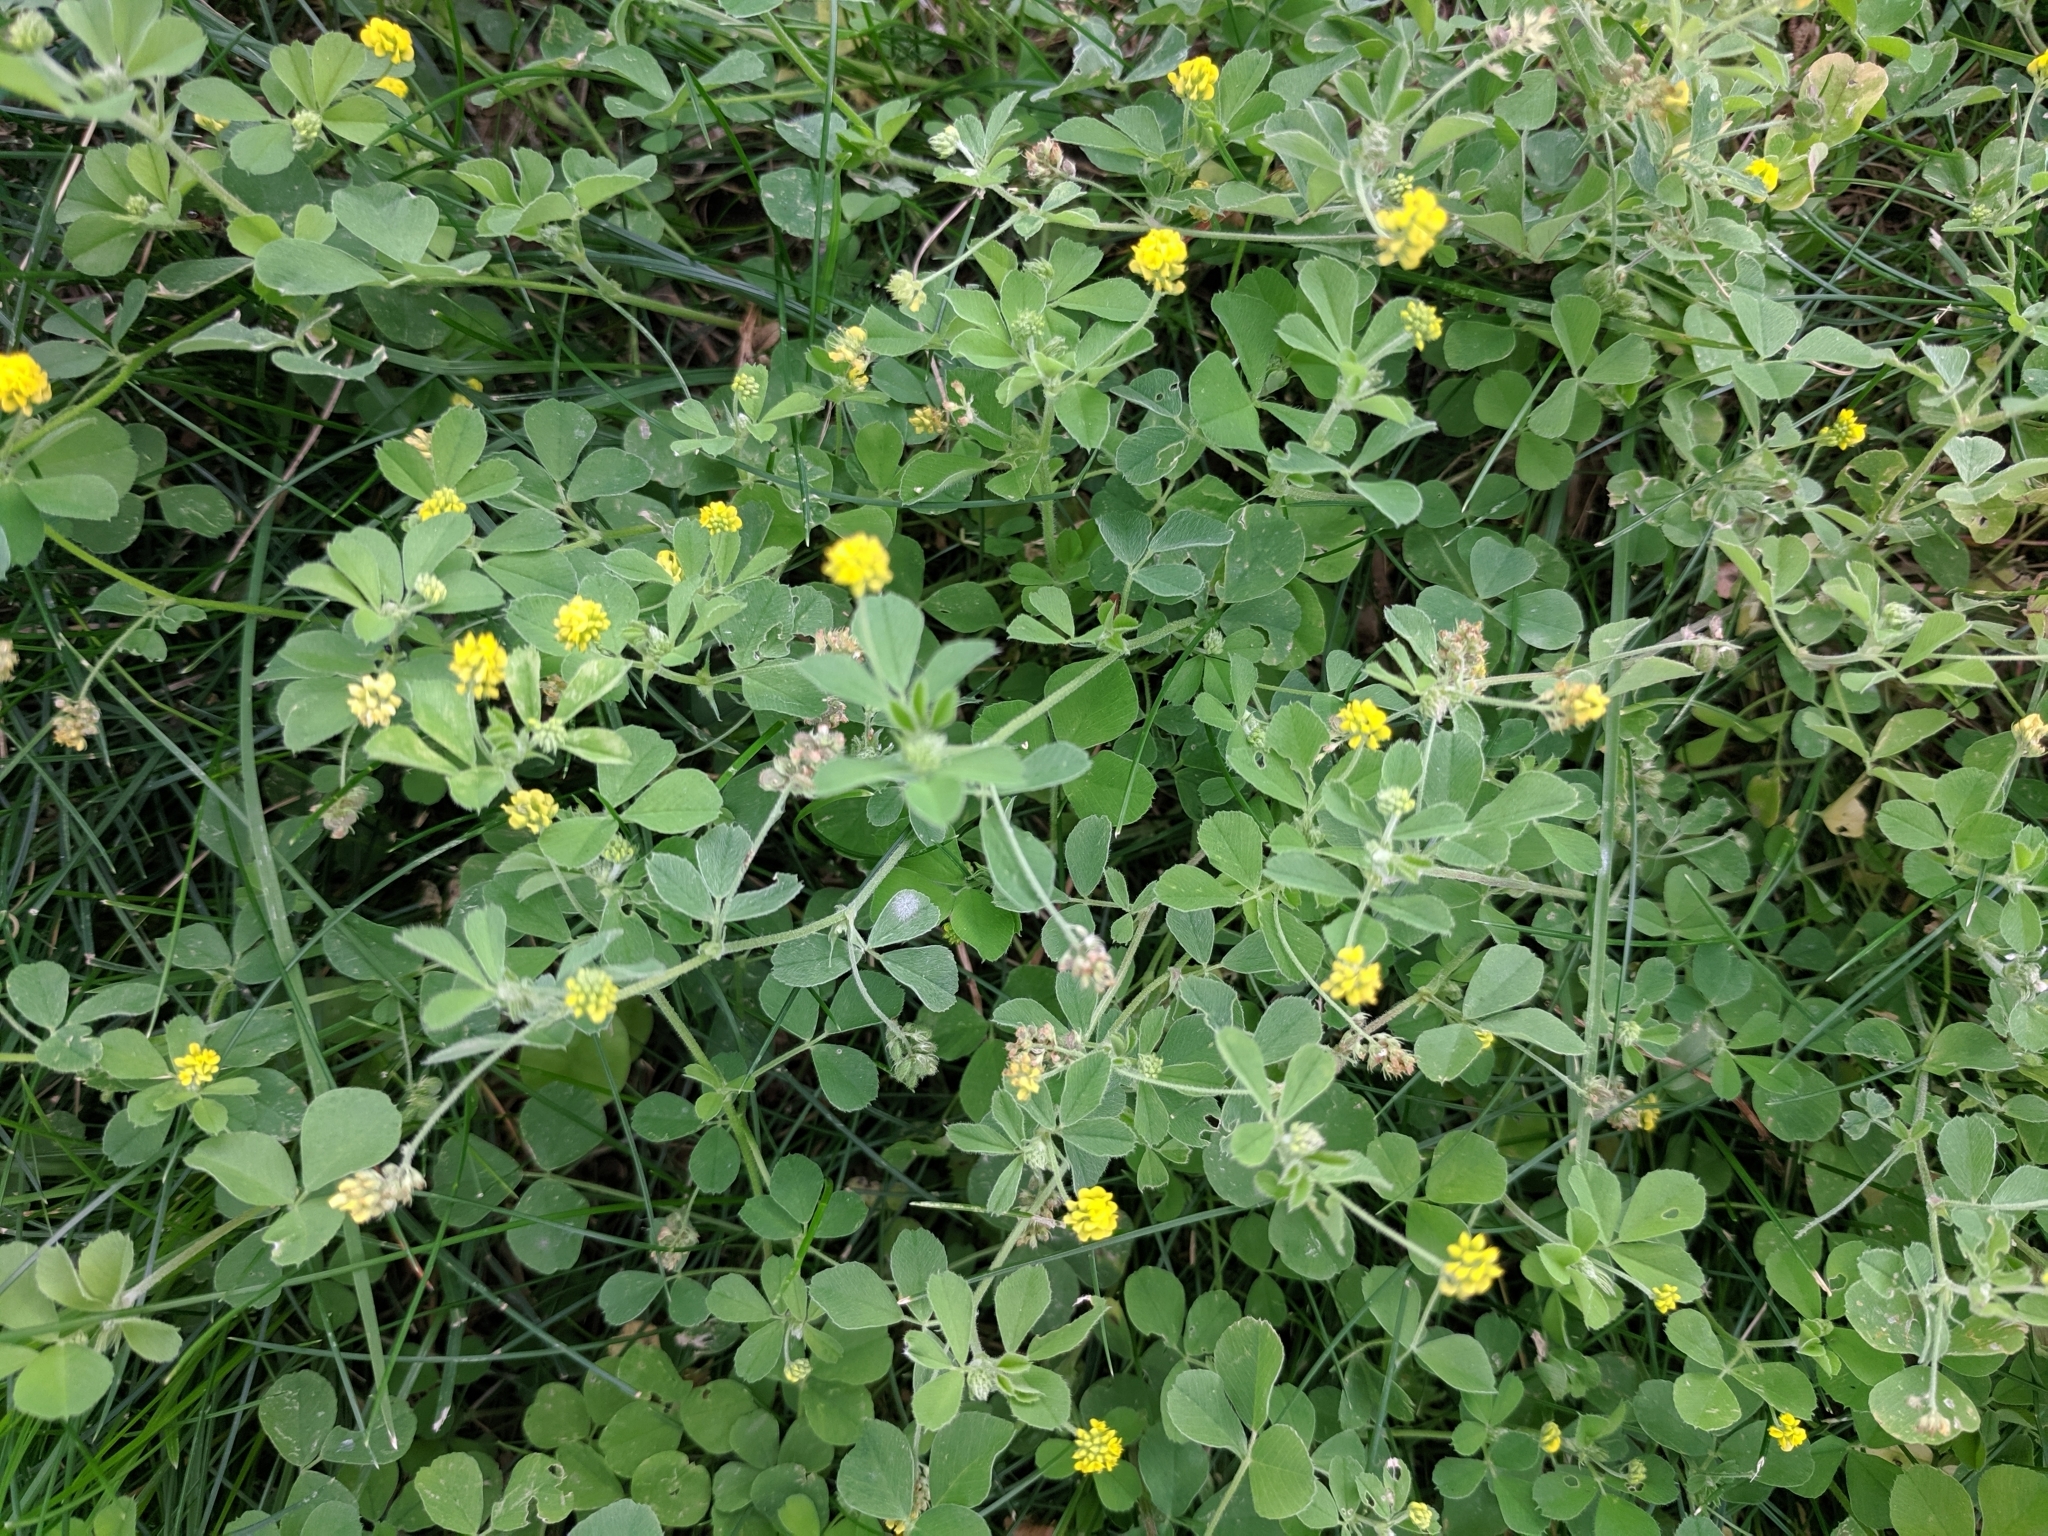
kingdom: Plantae
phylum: Tracheophyta
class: Magnoliopsida
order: Fabales
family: Fabaceae
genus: Medicago
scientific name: Medicago lupulina
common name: Black medick
